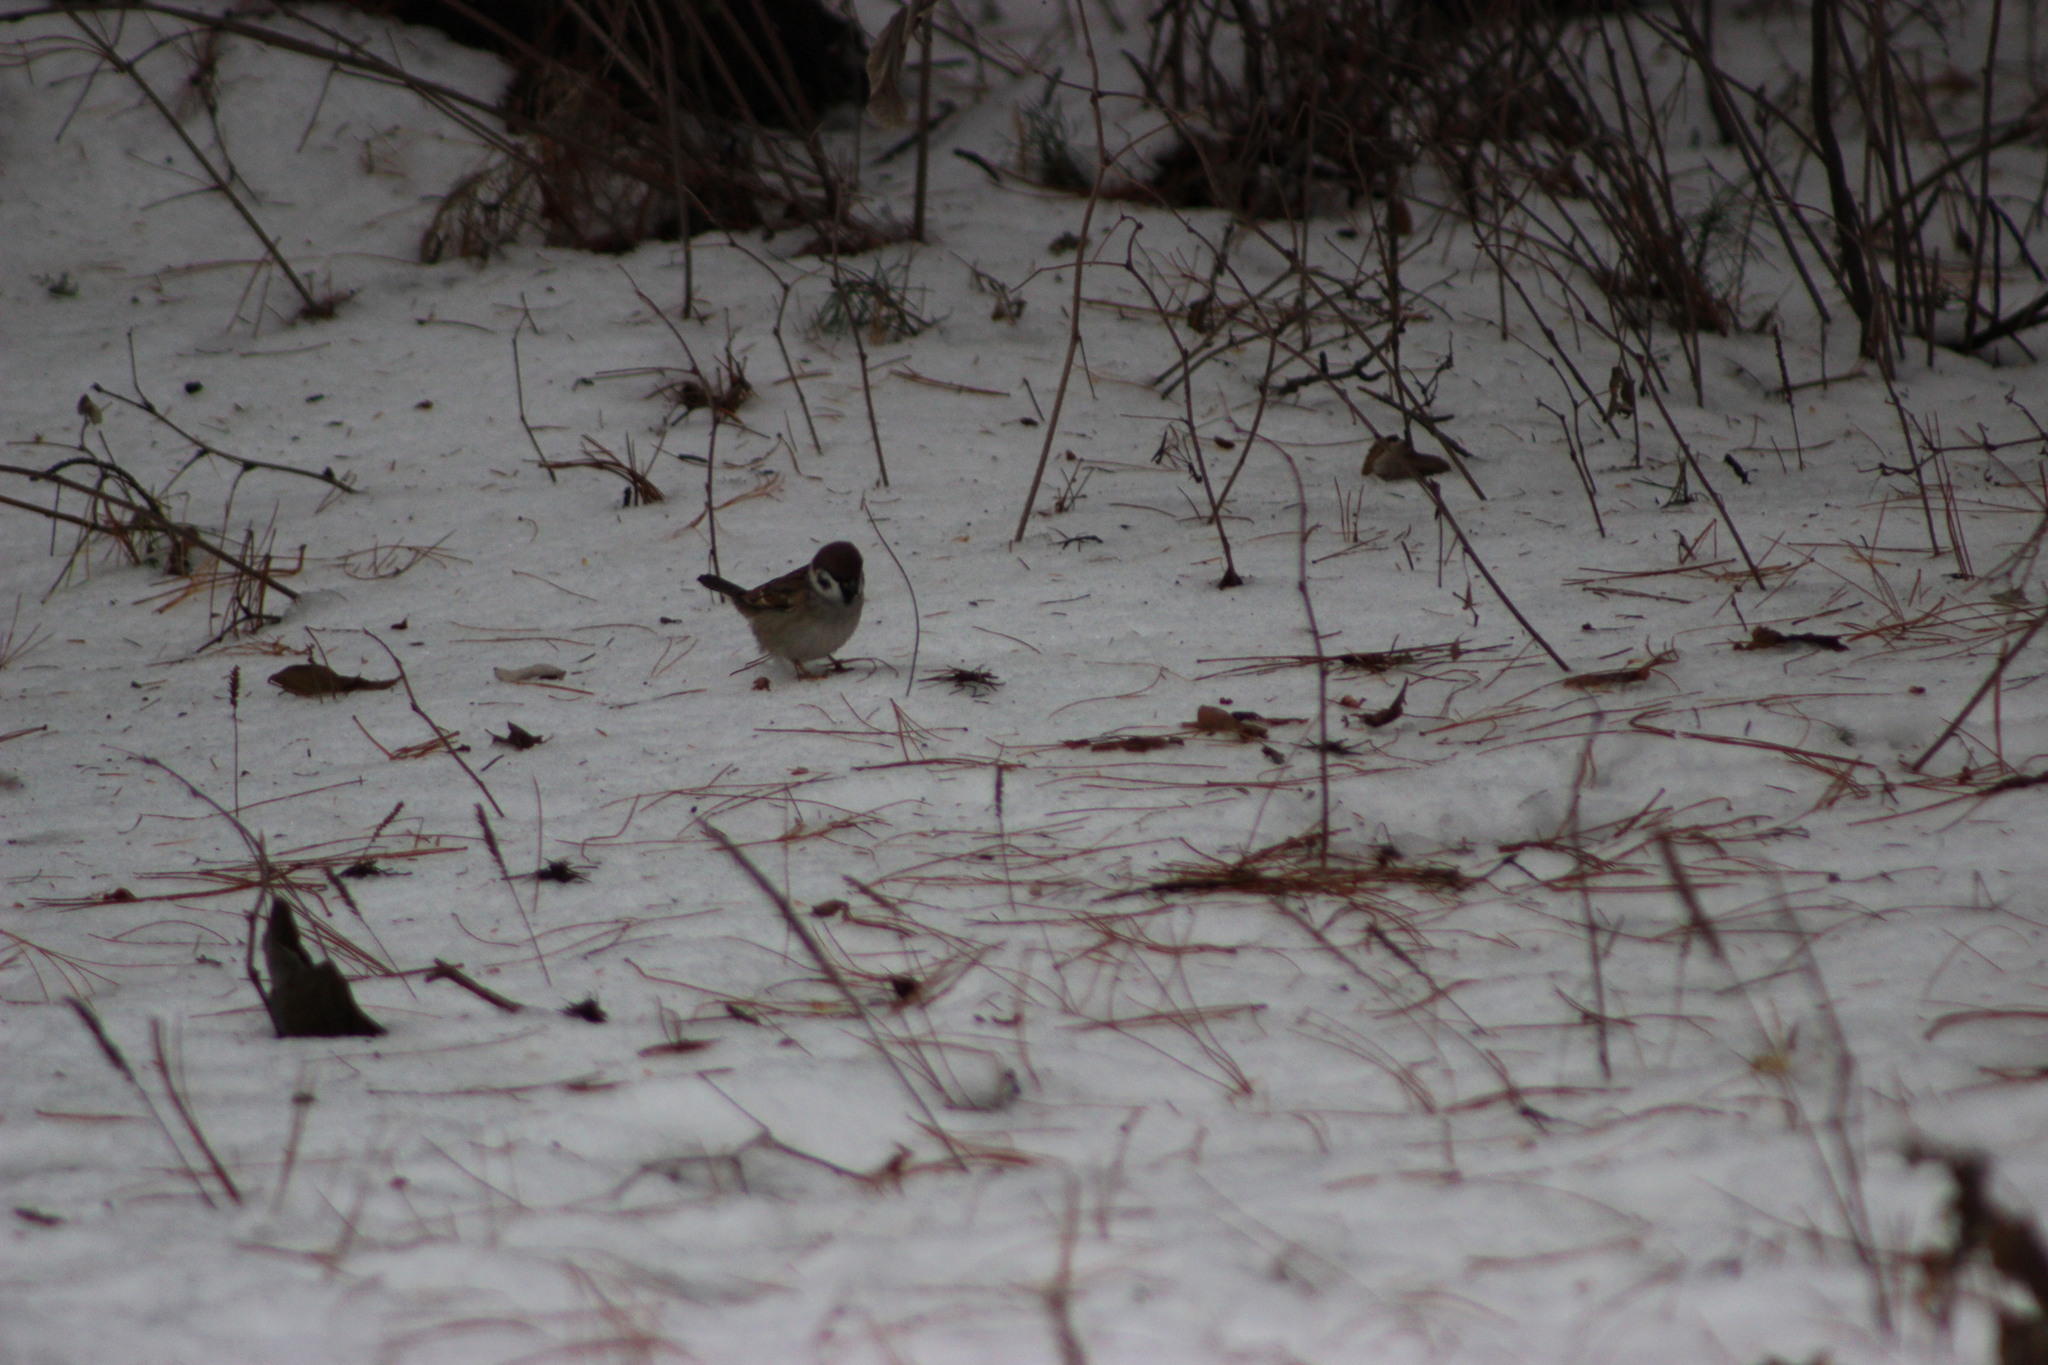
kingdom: Animalia
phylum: Chordata
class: Aves
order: Passeriformes
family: Passeridae
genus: Passer
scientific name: Passer montanus
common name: Eurasian tree sparrow
